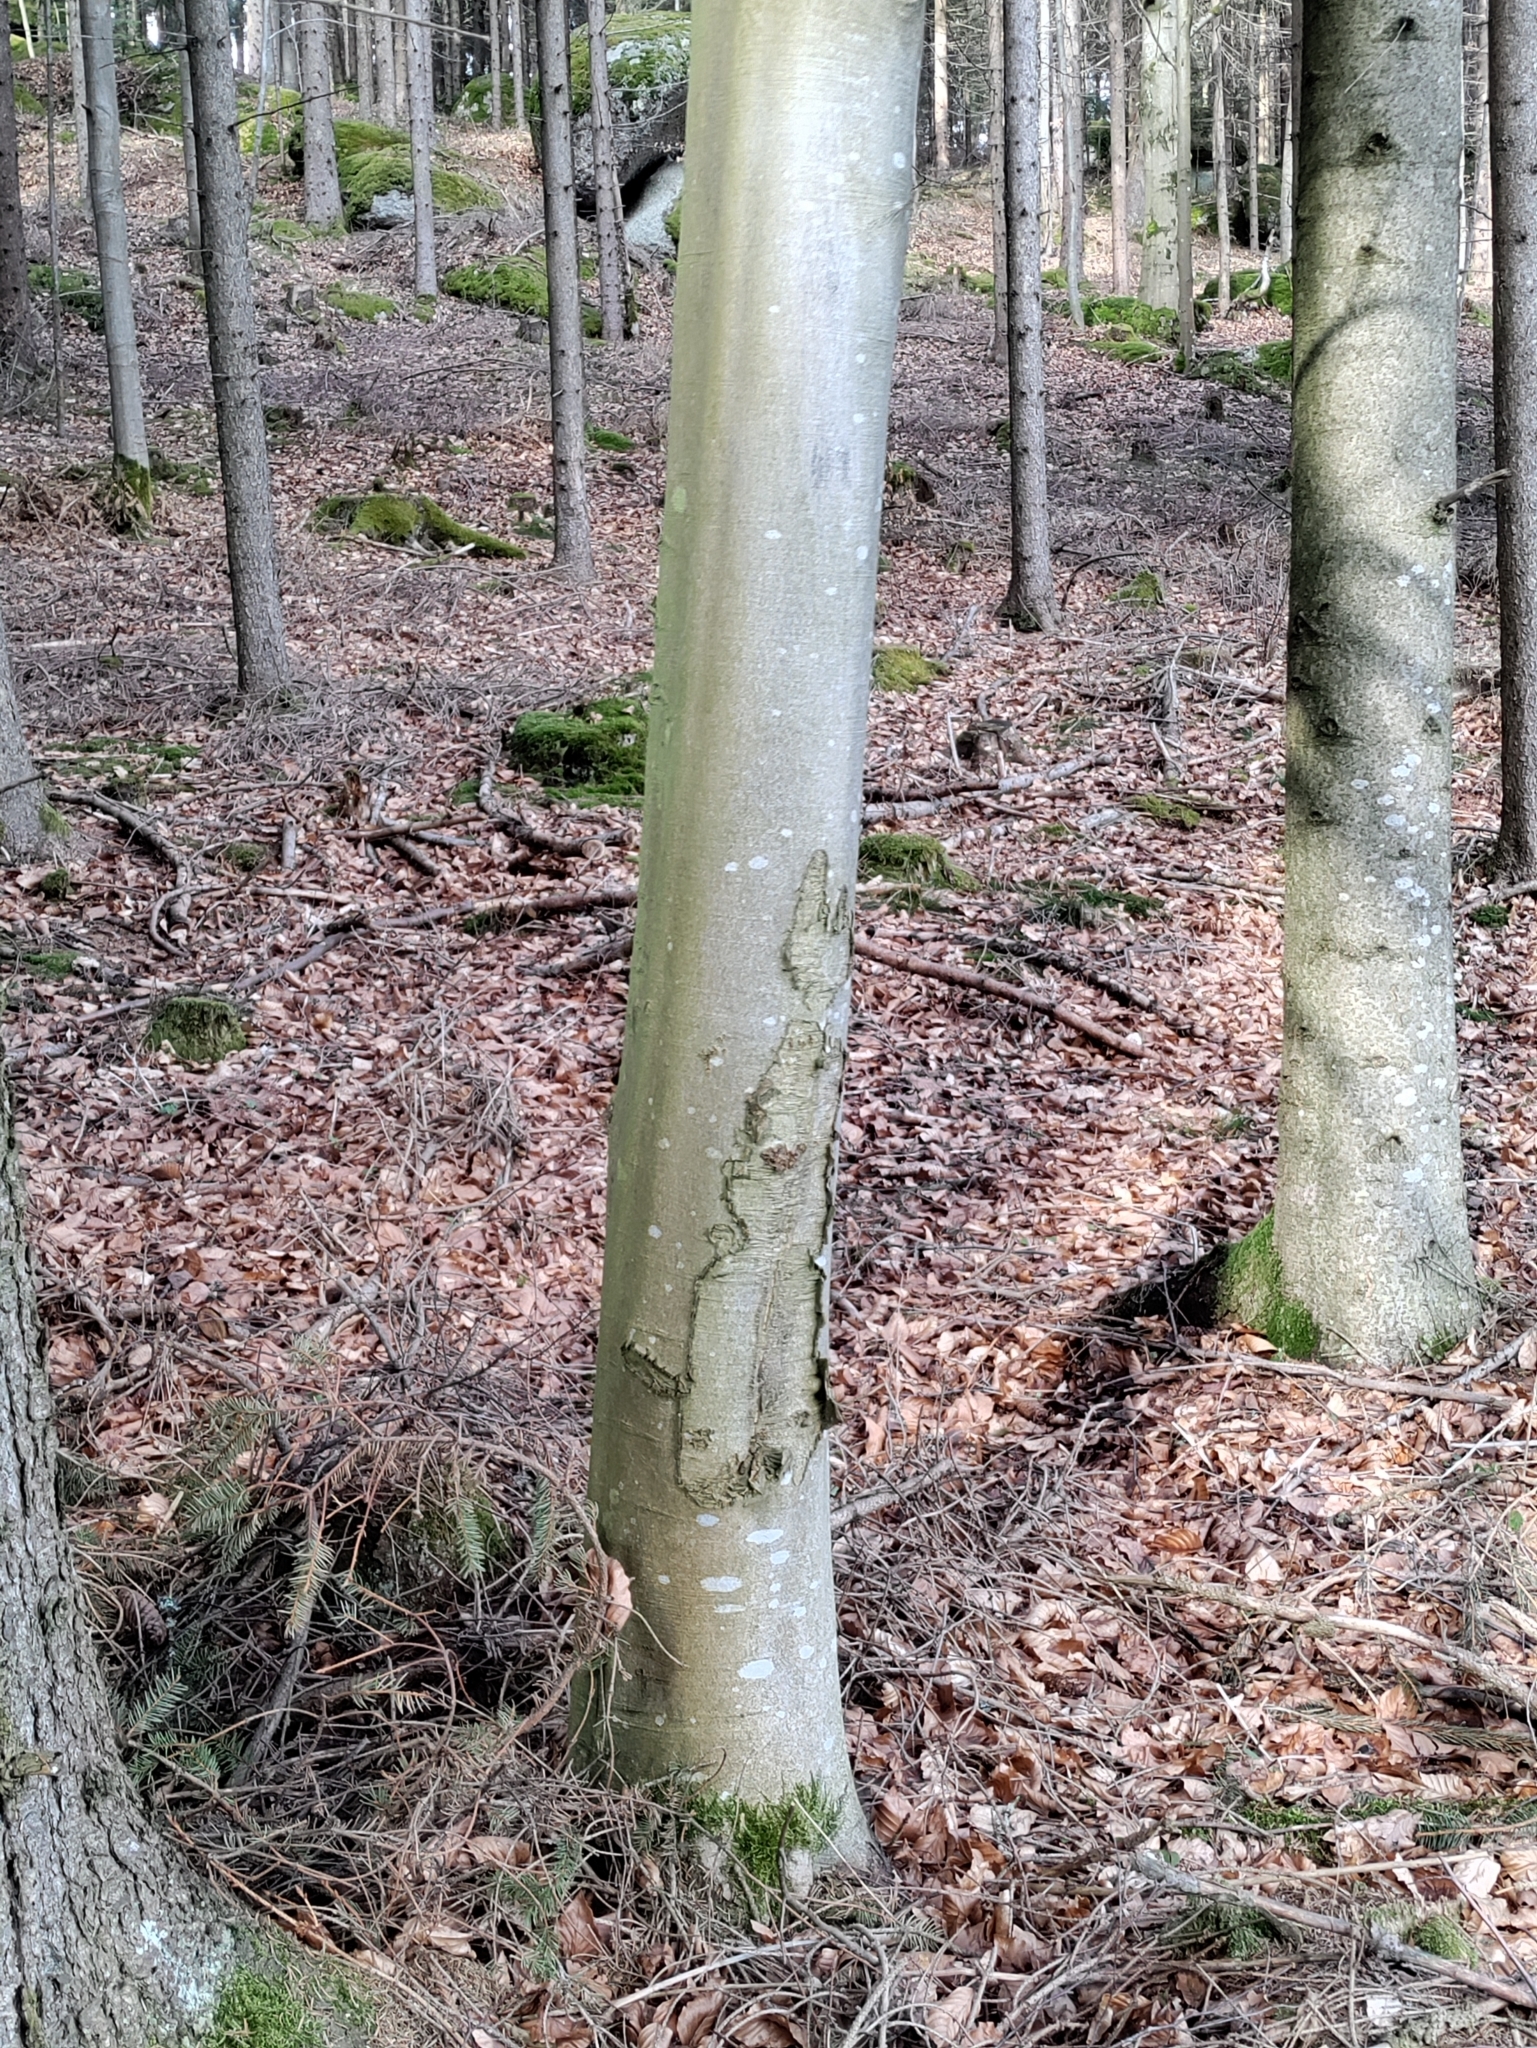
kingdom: Plantae
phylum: Tracheophyta
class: Magnoliopsida
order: Fagales
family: Fagaceae
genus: Fagus
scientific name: Fagus sylvatica
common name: Beech
